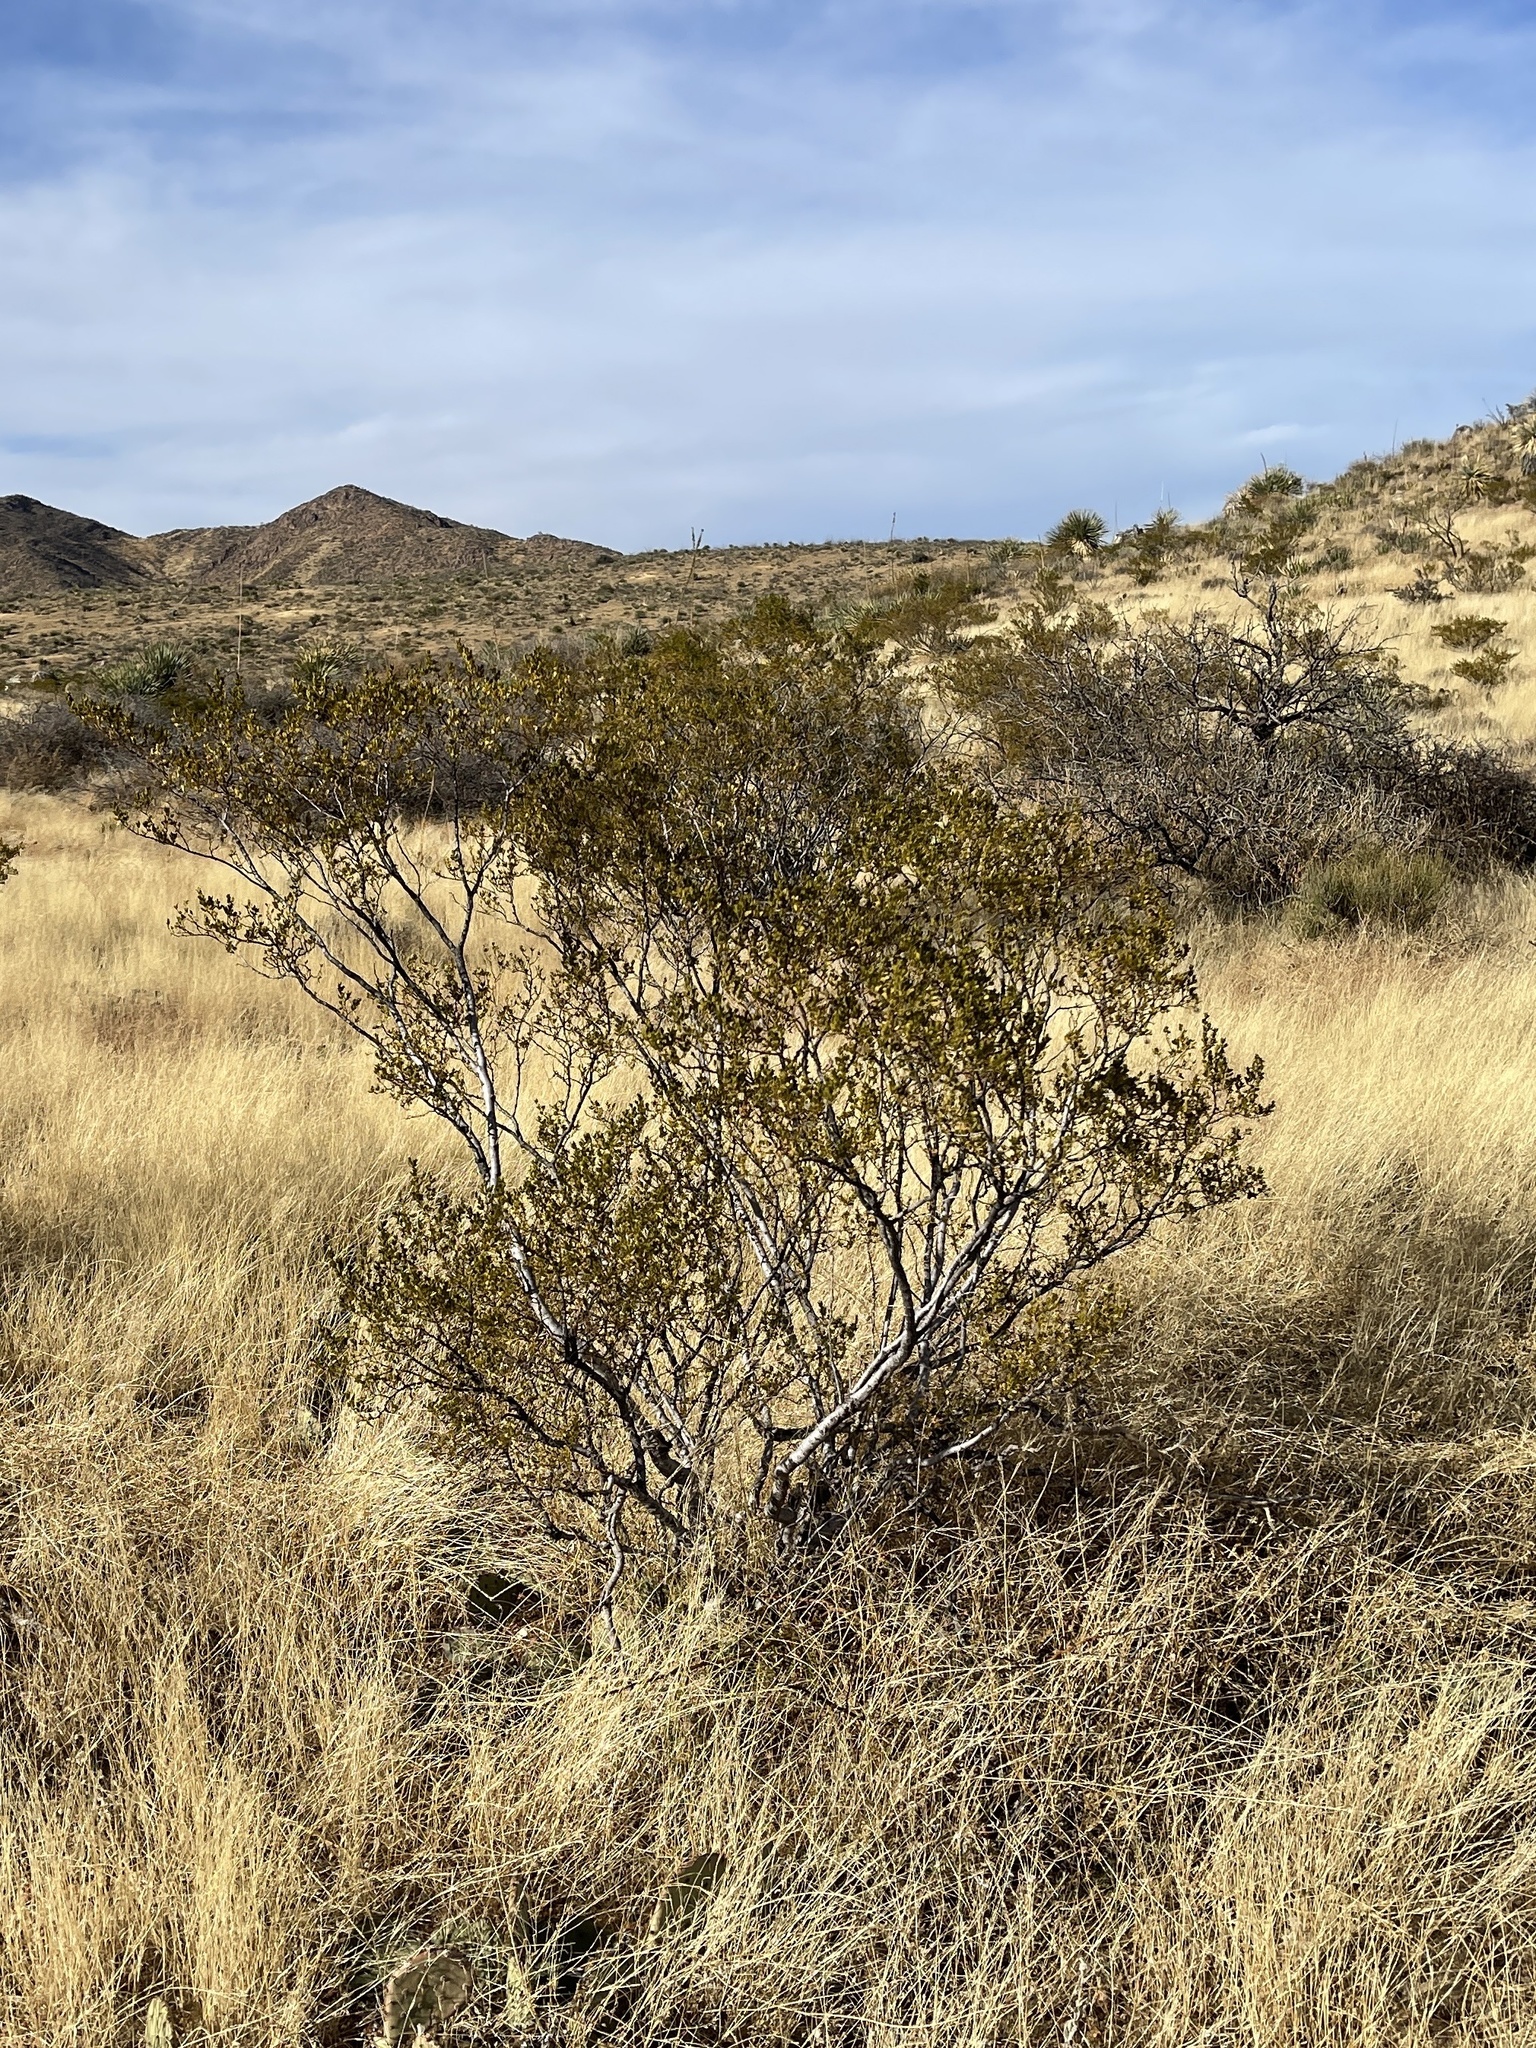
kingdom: Plantae
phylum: Tracheophyta
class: Magnoliopsida
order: Zygophyllales
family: Zygophyllaceae
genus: Larrea
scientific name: Larrea tridentata
